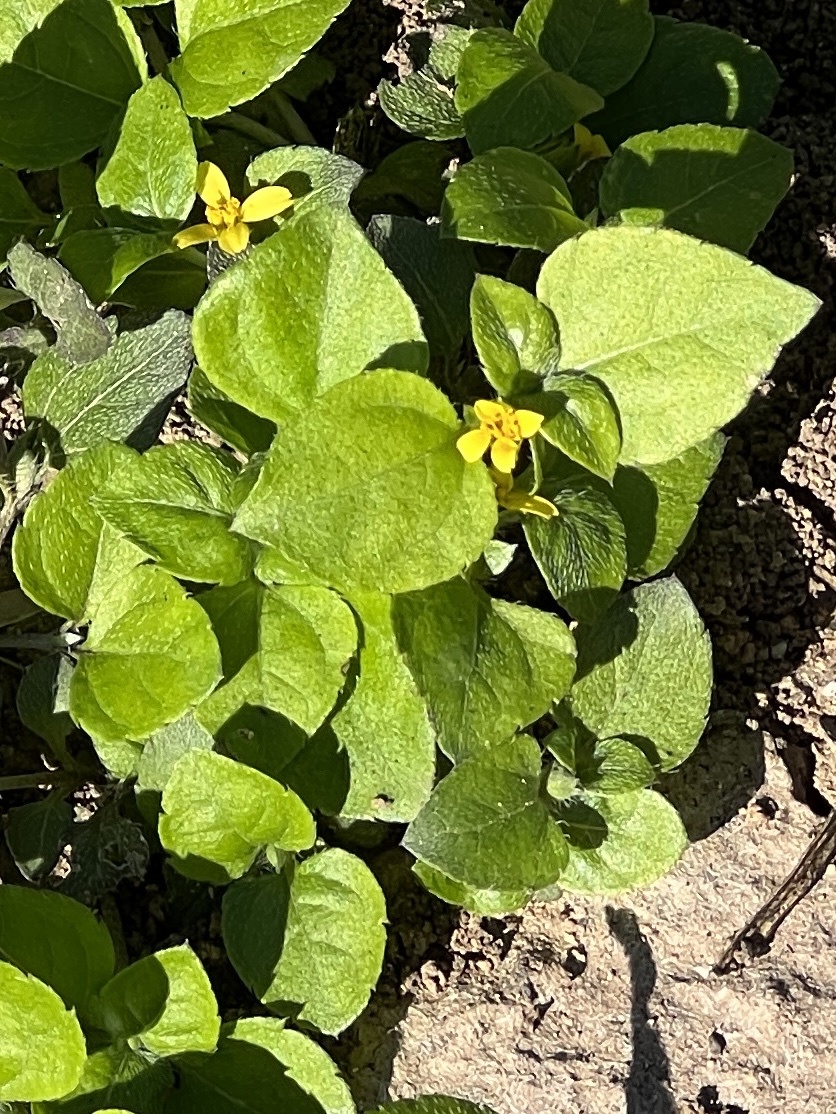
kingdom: Plantae
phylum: Tracheophyta
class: Magnoliopsida
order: Asterales
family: Asteraceae
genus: Calyptocarpus
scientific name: Calyptocarpus vialis
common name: Straggler daisy
